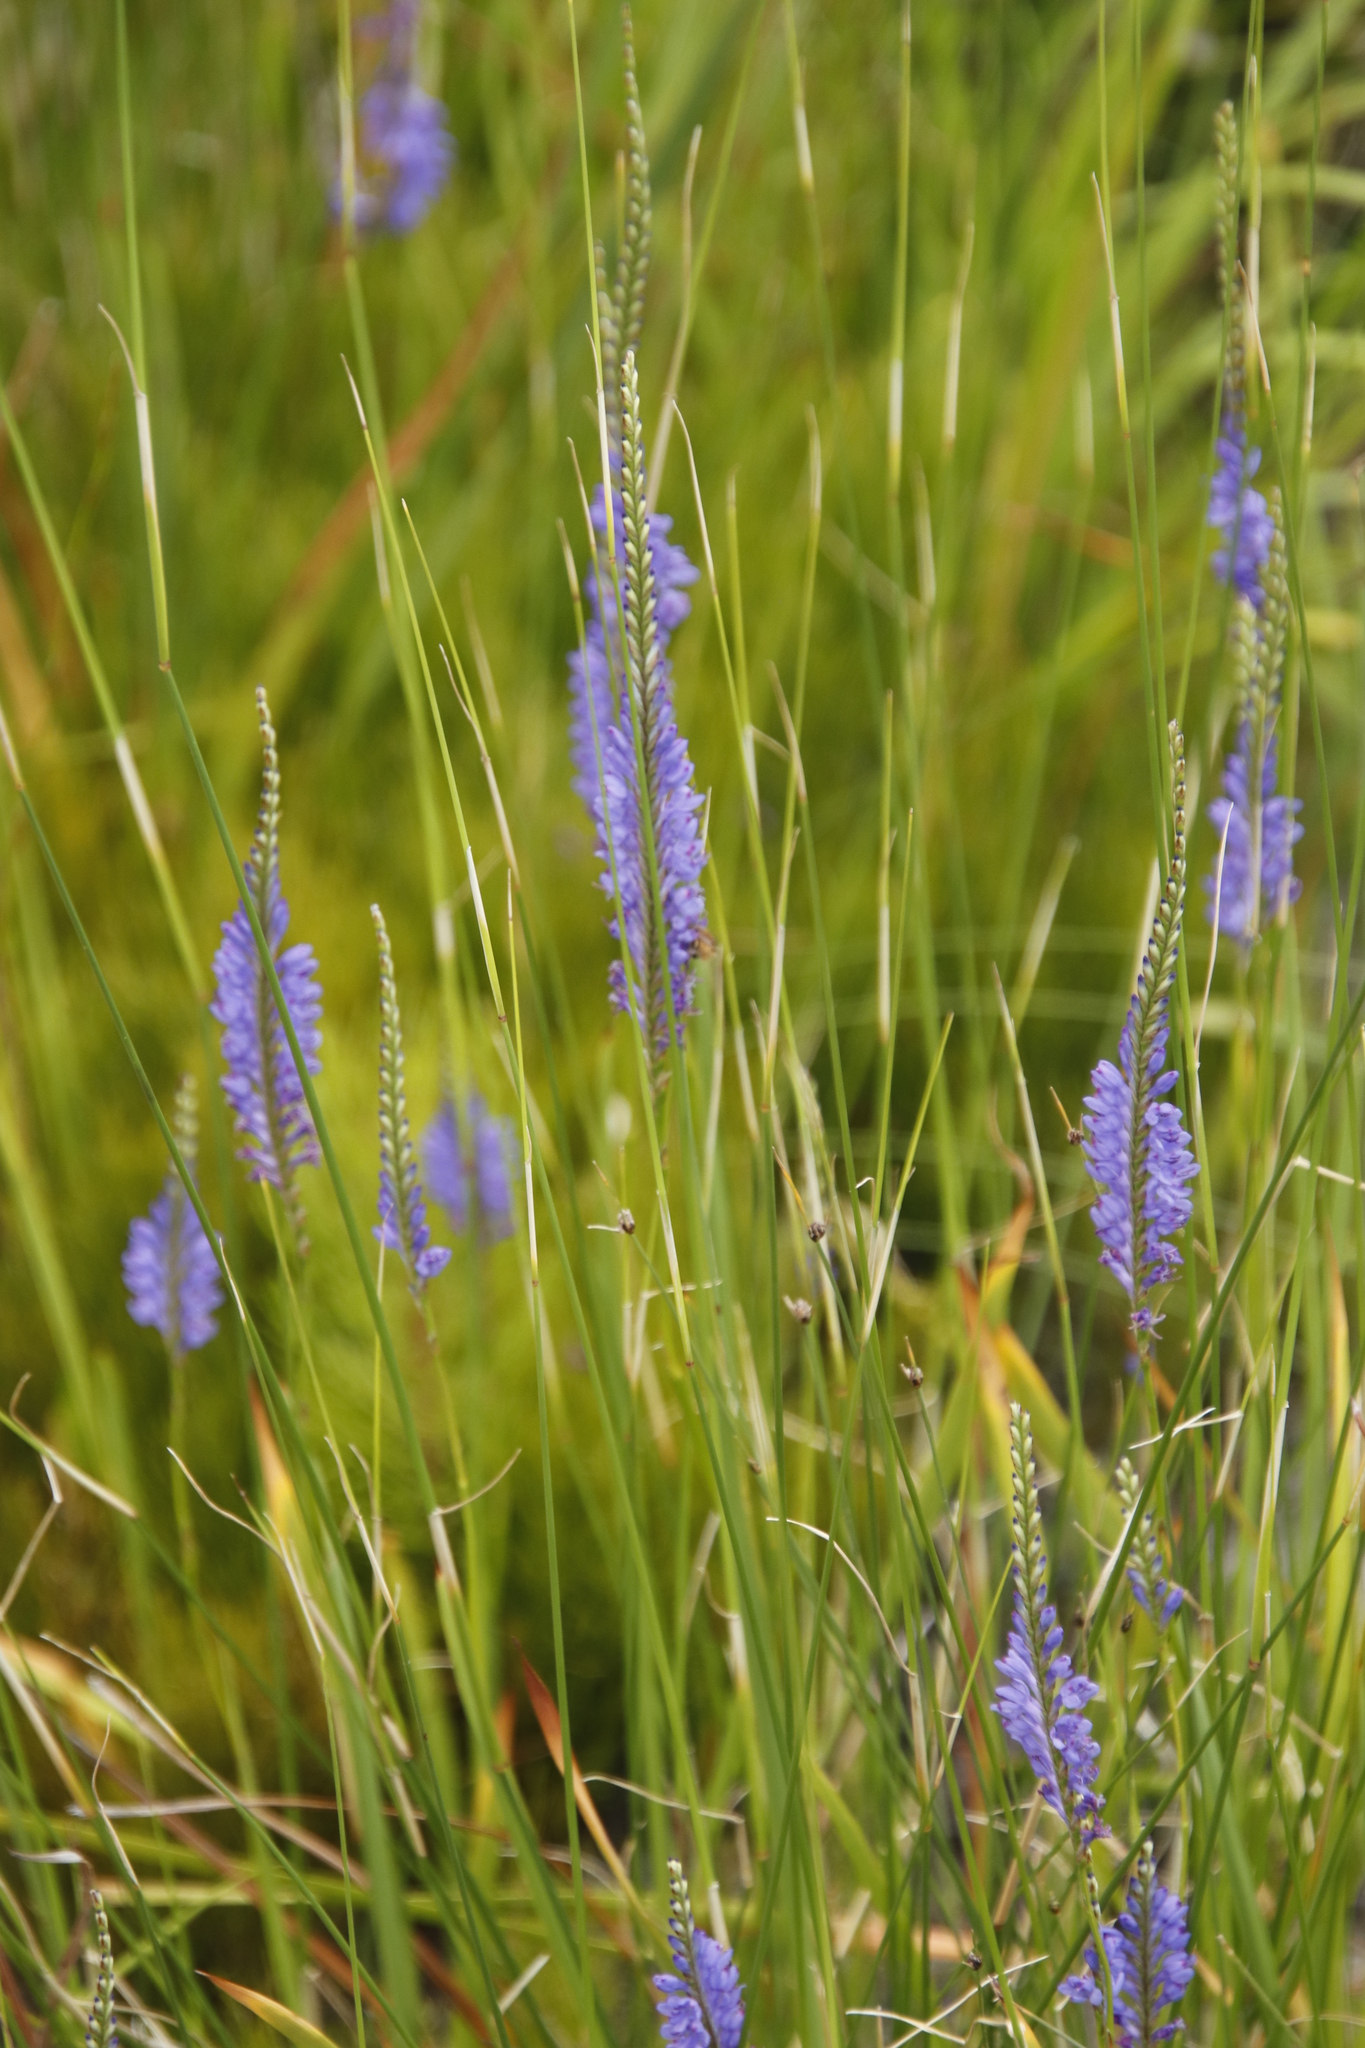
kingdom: Plantae
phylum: Tracheophyta
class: Liliopsida
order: Asparagales
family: Iridaceae
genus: Micranthus
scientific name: Micranthus plantagineus
